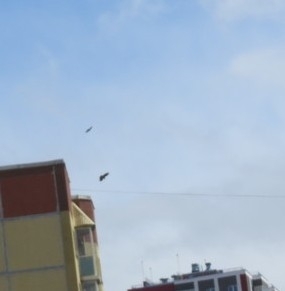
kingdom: Animalia
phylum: Chordata
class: Aves
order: Passeriformes
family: Corvidae
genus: Corvus
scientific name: Corvus cornix
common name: Hooded crow
